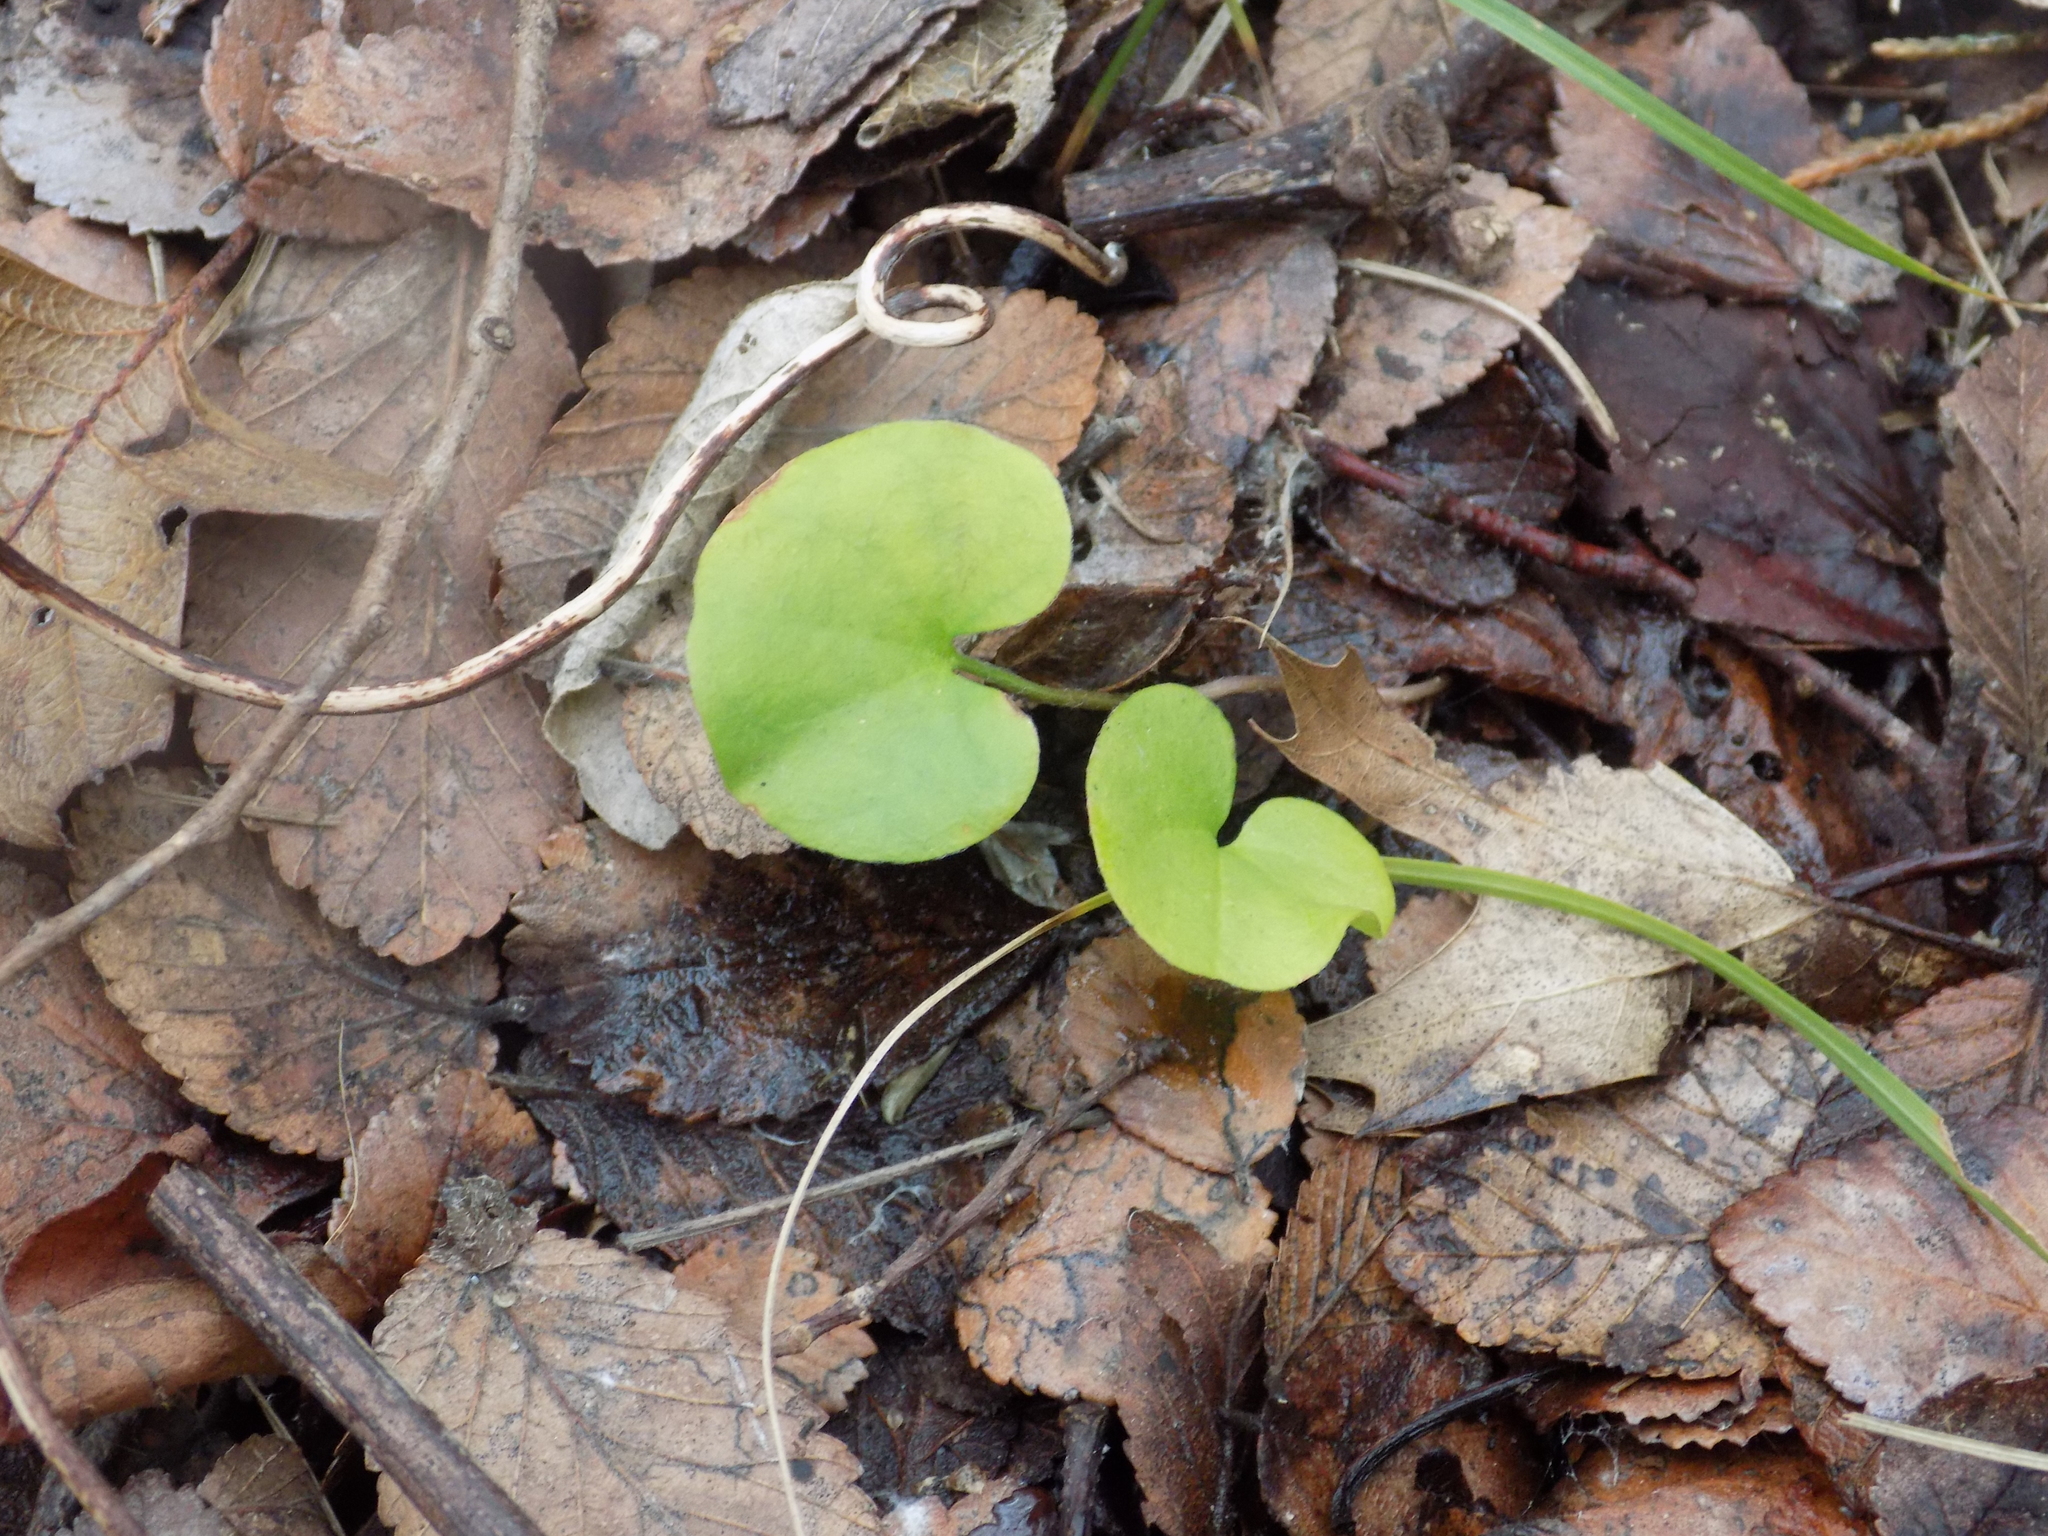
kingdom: Plantae
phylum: Tracheophyta
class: Magnoliopsida
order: Solanales
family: Convolvulaceae
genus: Dichondra
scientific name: Dichondra carolinensis
